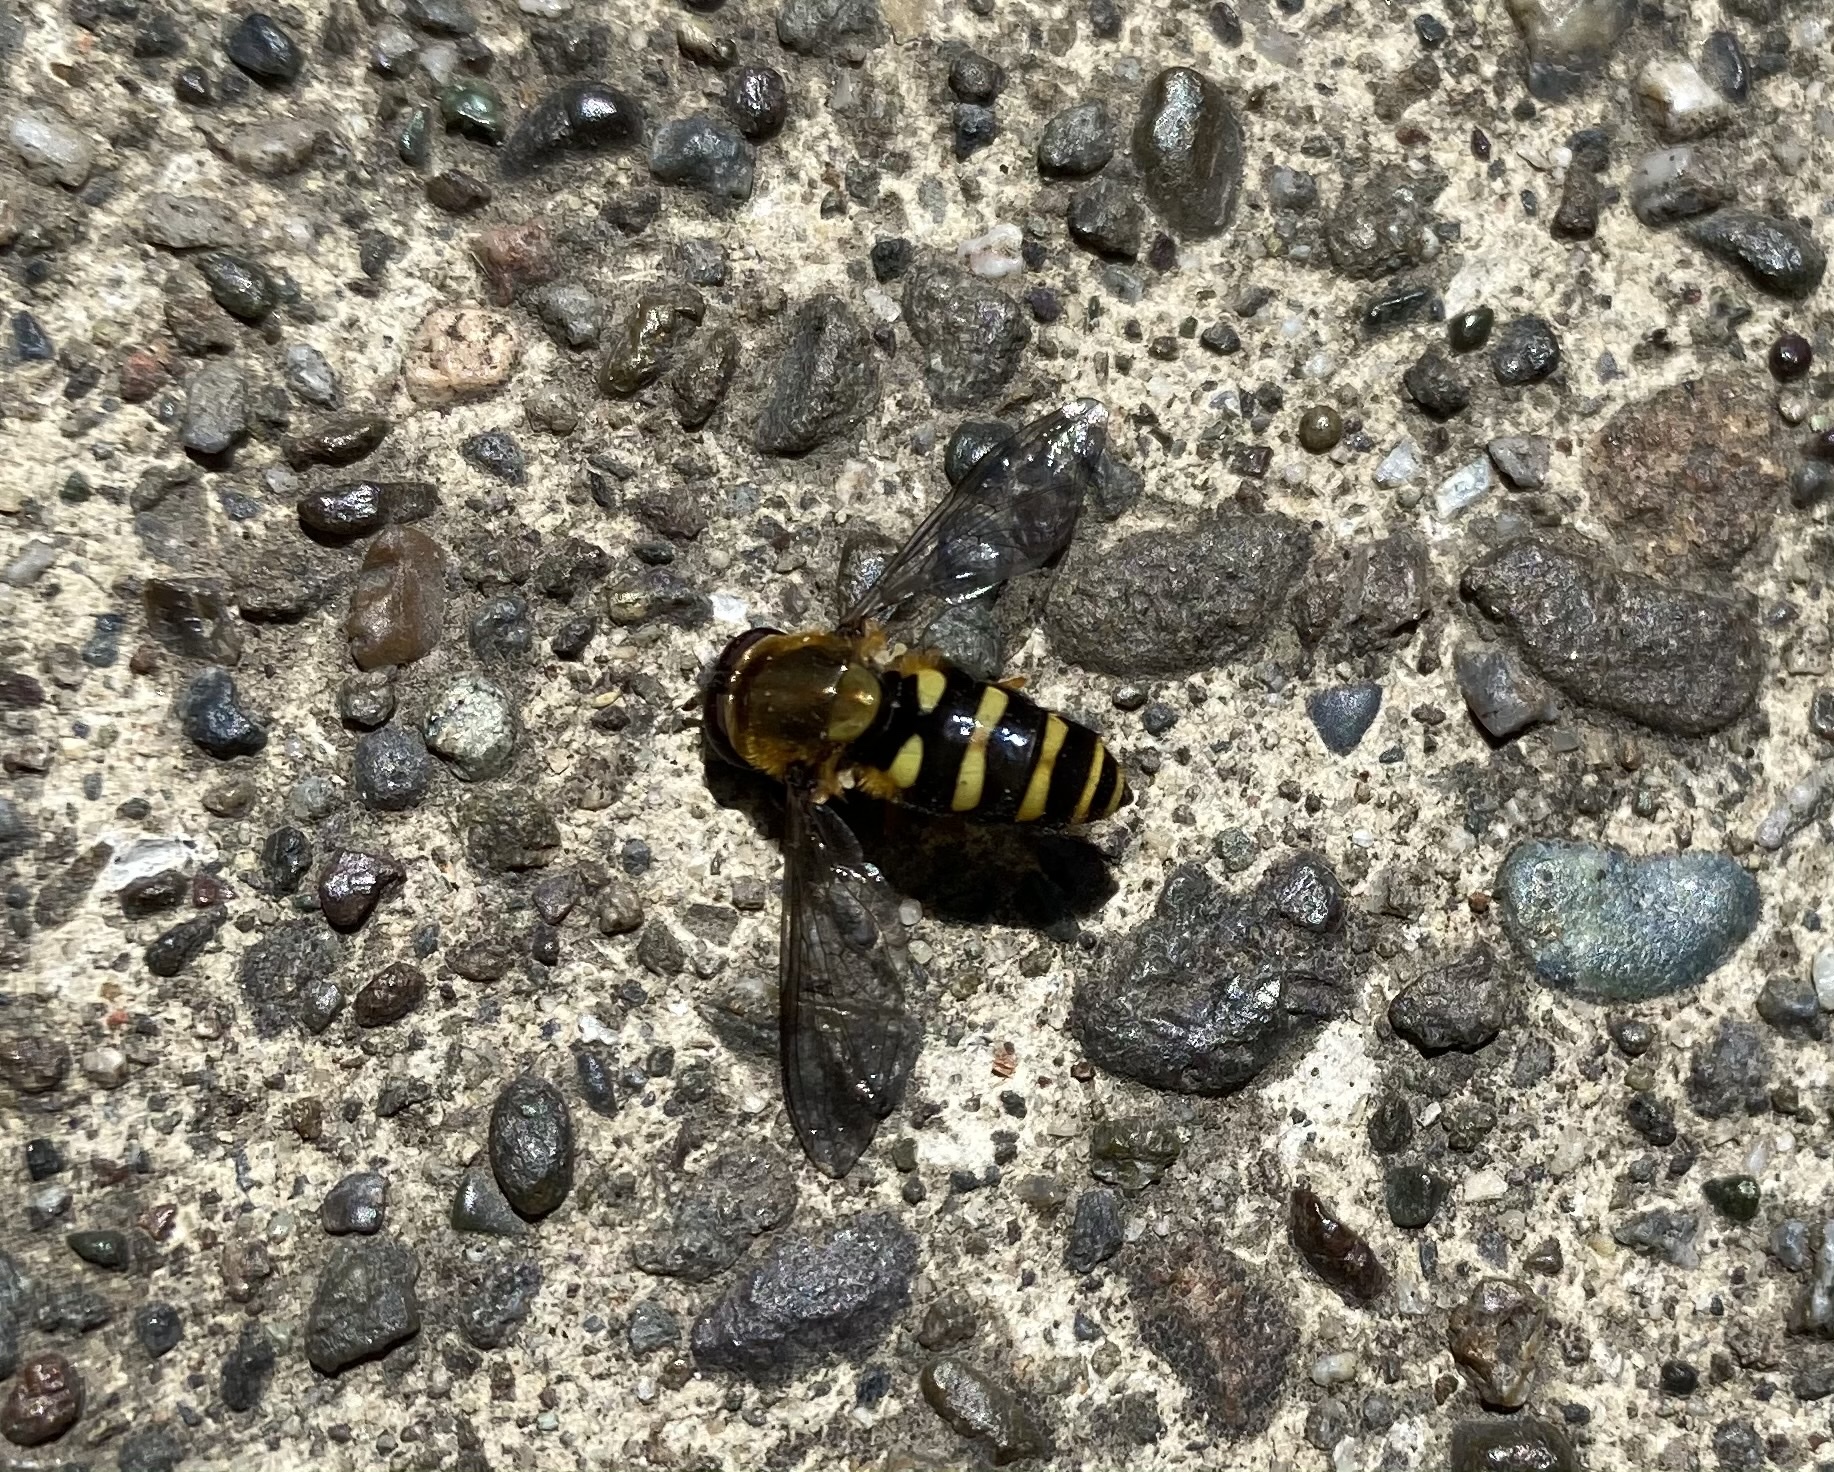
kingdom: Animalia
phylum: Arthropoda
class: Insecta
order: Diptera
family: Syrphidae
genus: Syrphus
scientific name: Syrphus opinator
